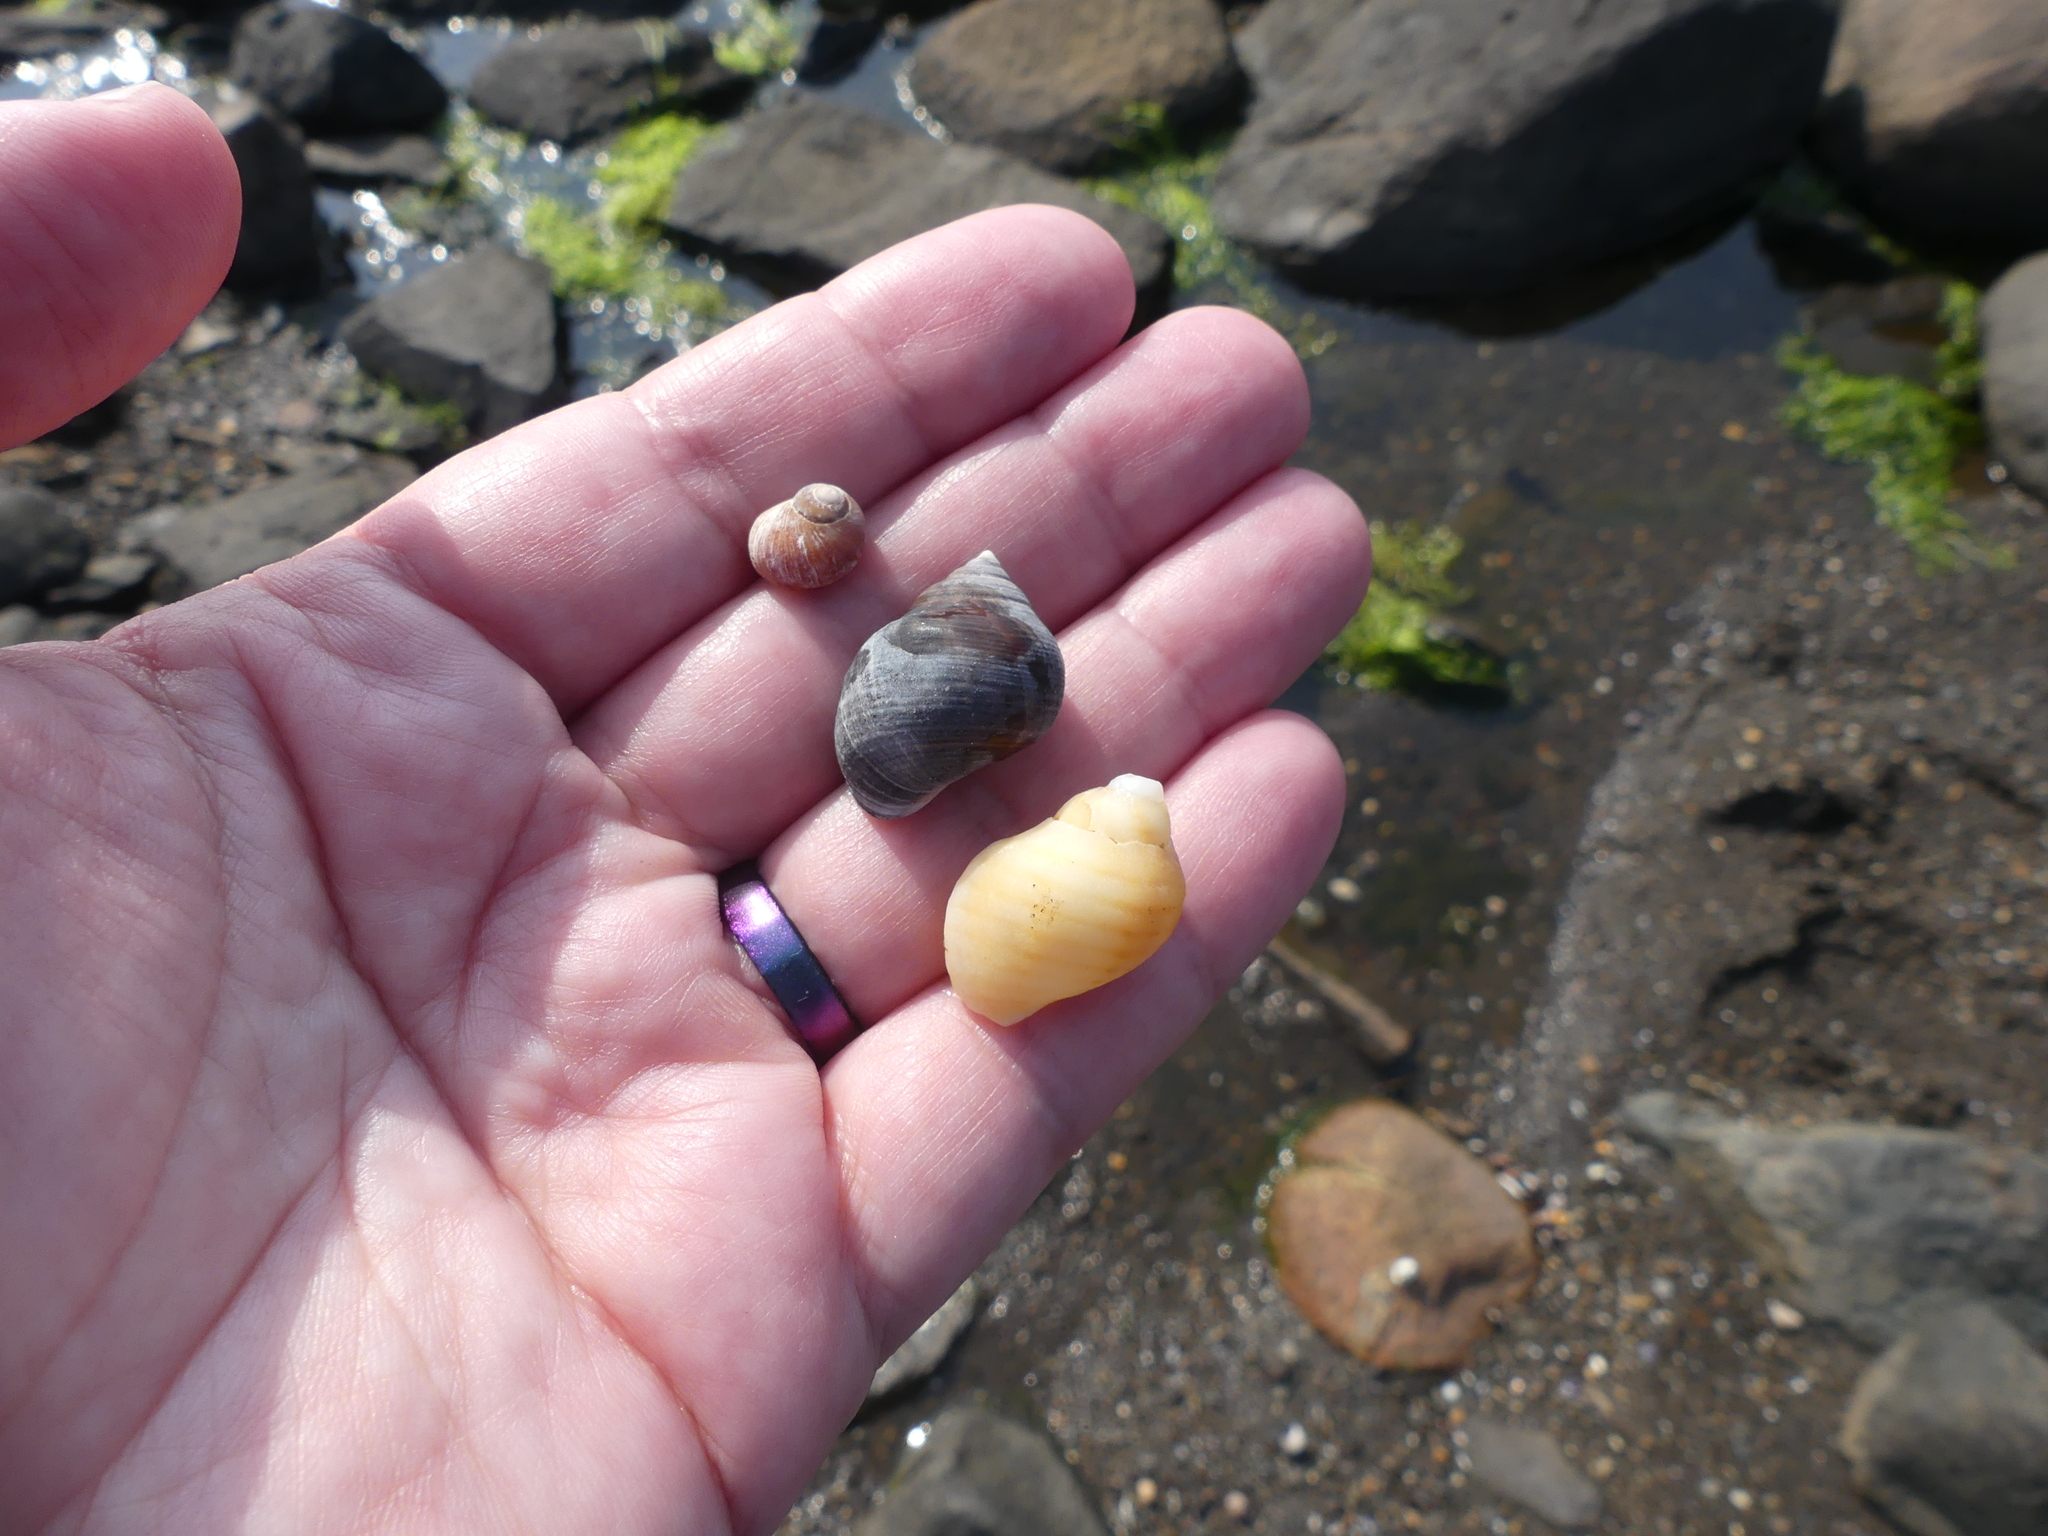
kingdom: Animalia
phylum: Mollusca
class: Gastropoda
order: Neogastropoda
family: Muricidae
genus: Nucella
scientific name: Nucella lapillus
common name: Dog whelk
